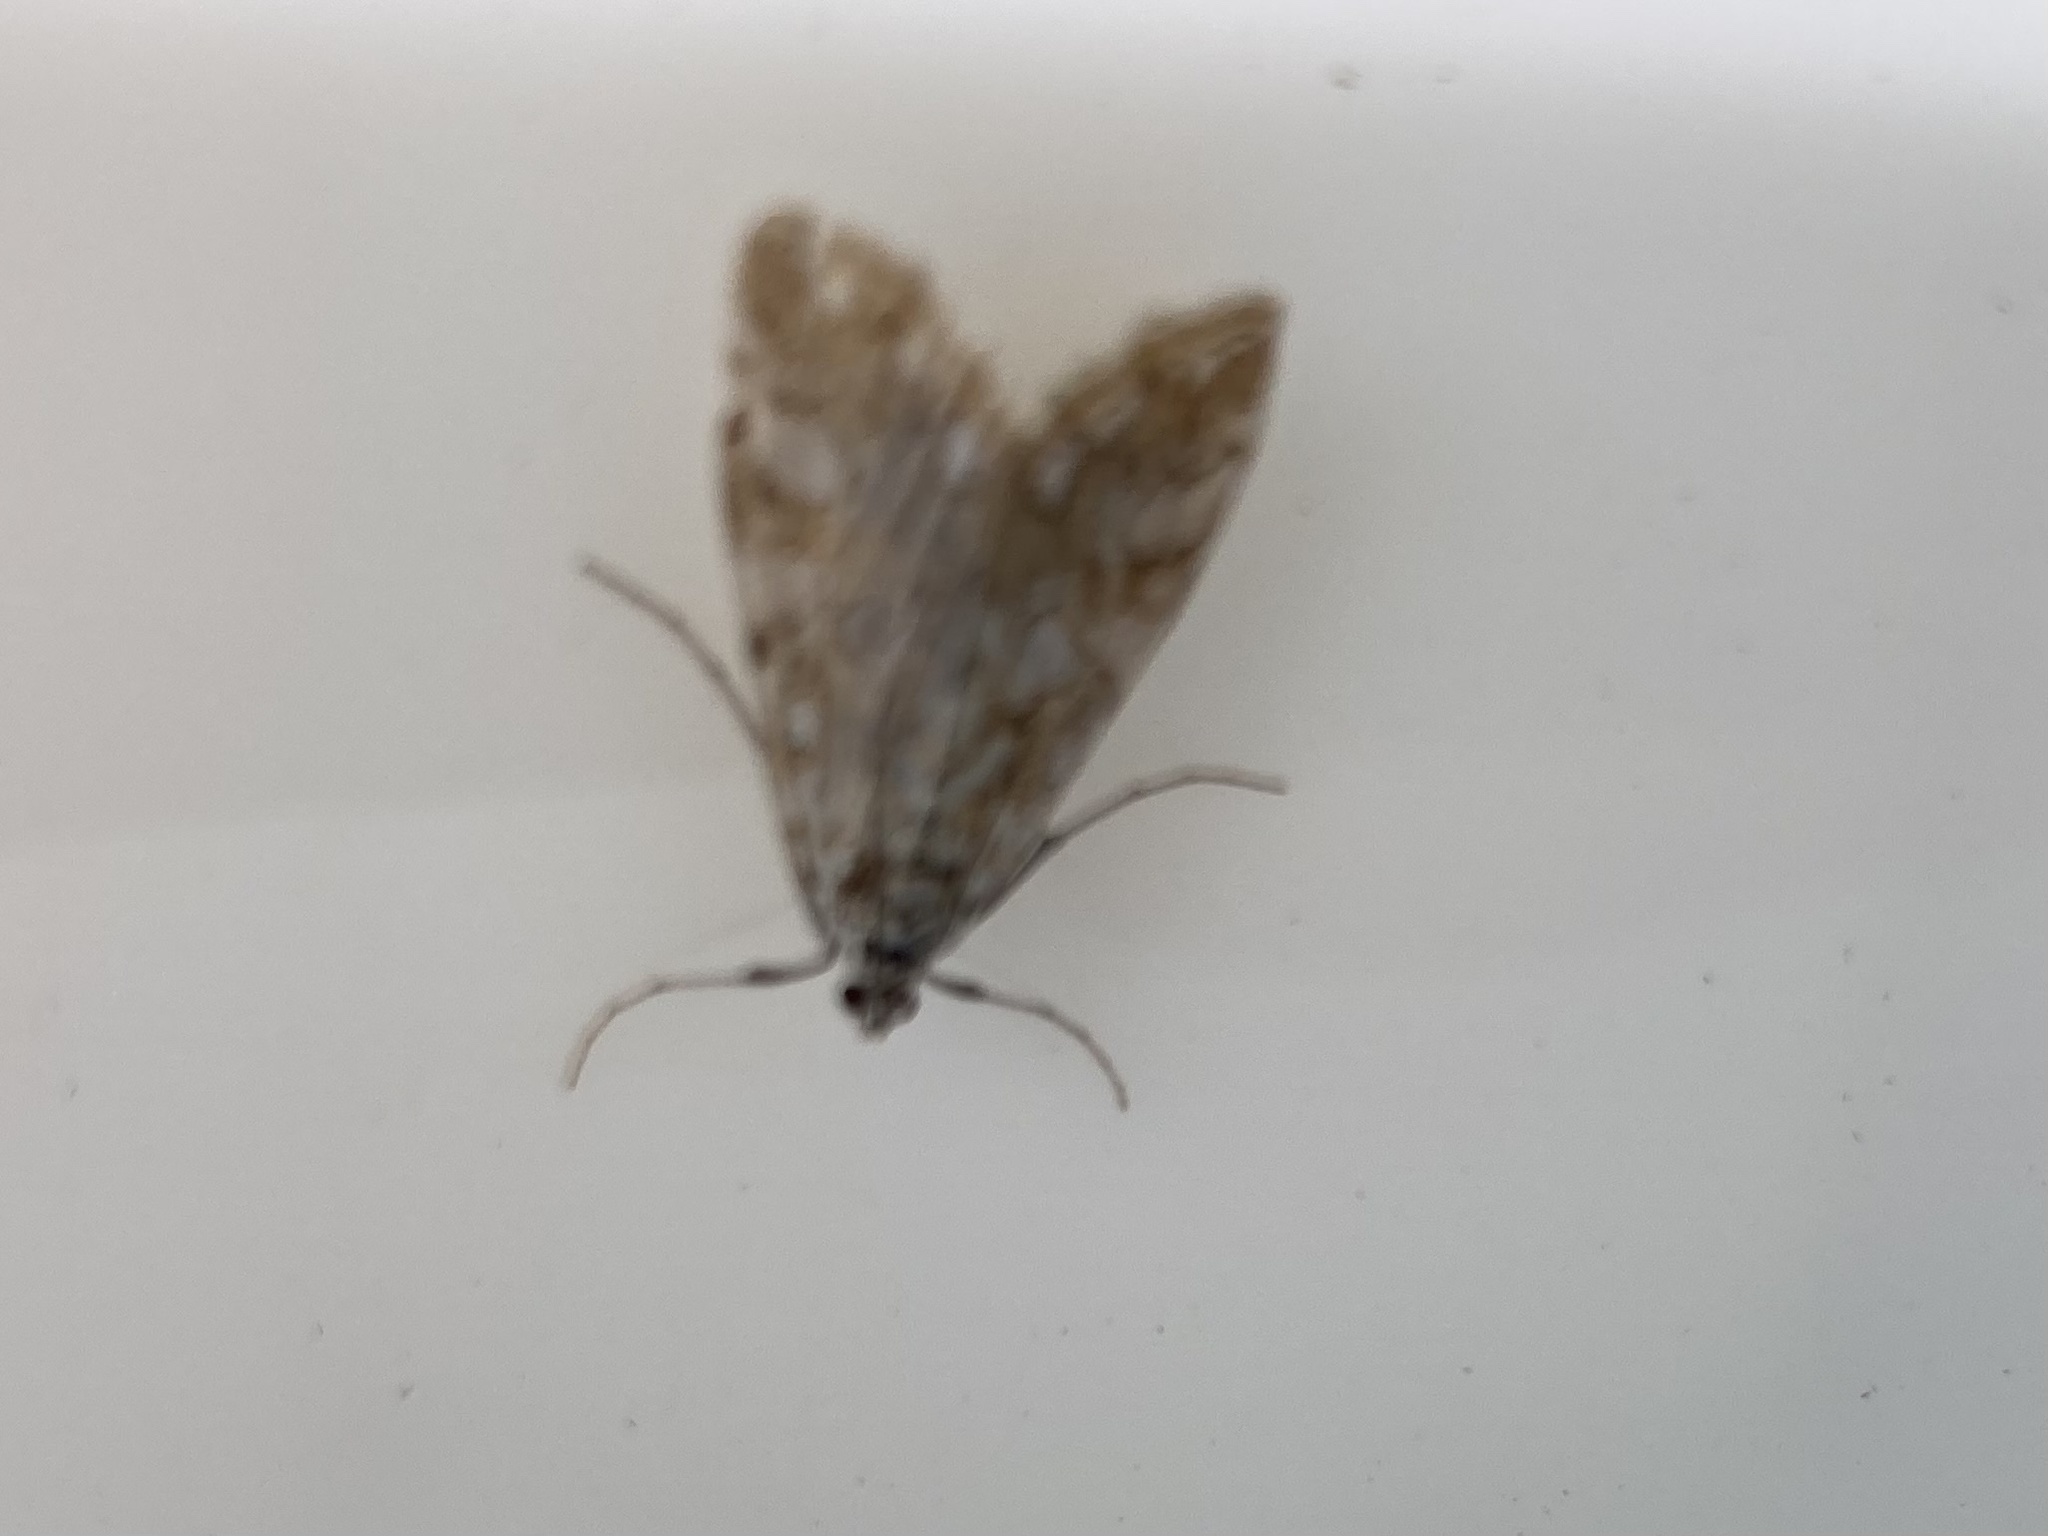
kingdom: Animalia
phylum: Arthropoda
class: Insecta
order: Lepidoptera
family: Crambidae
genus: Elophila
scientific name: Elophila nymphaeata
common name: Brown china-mark
